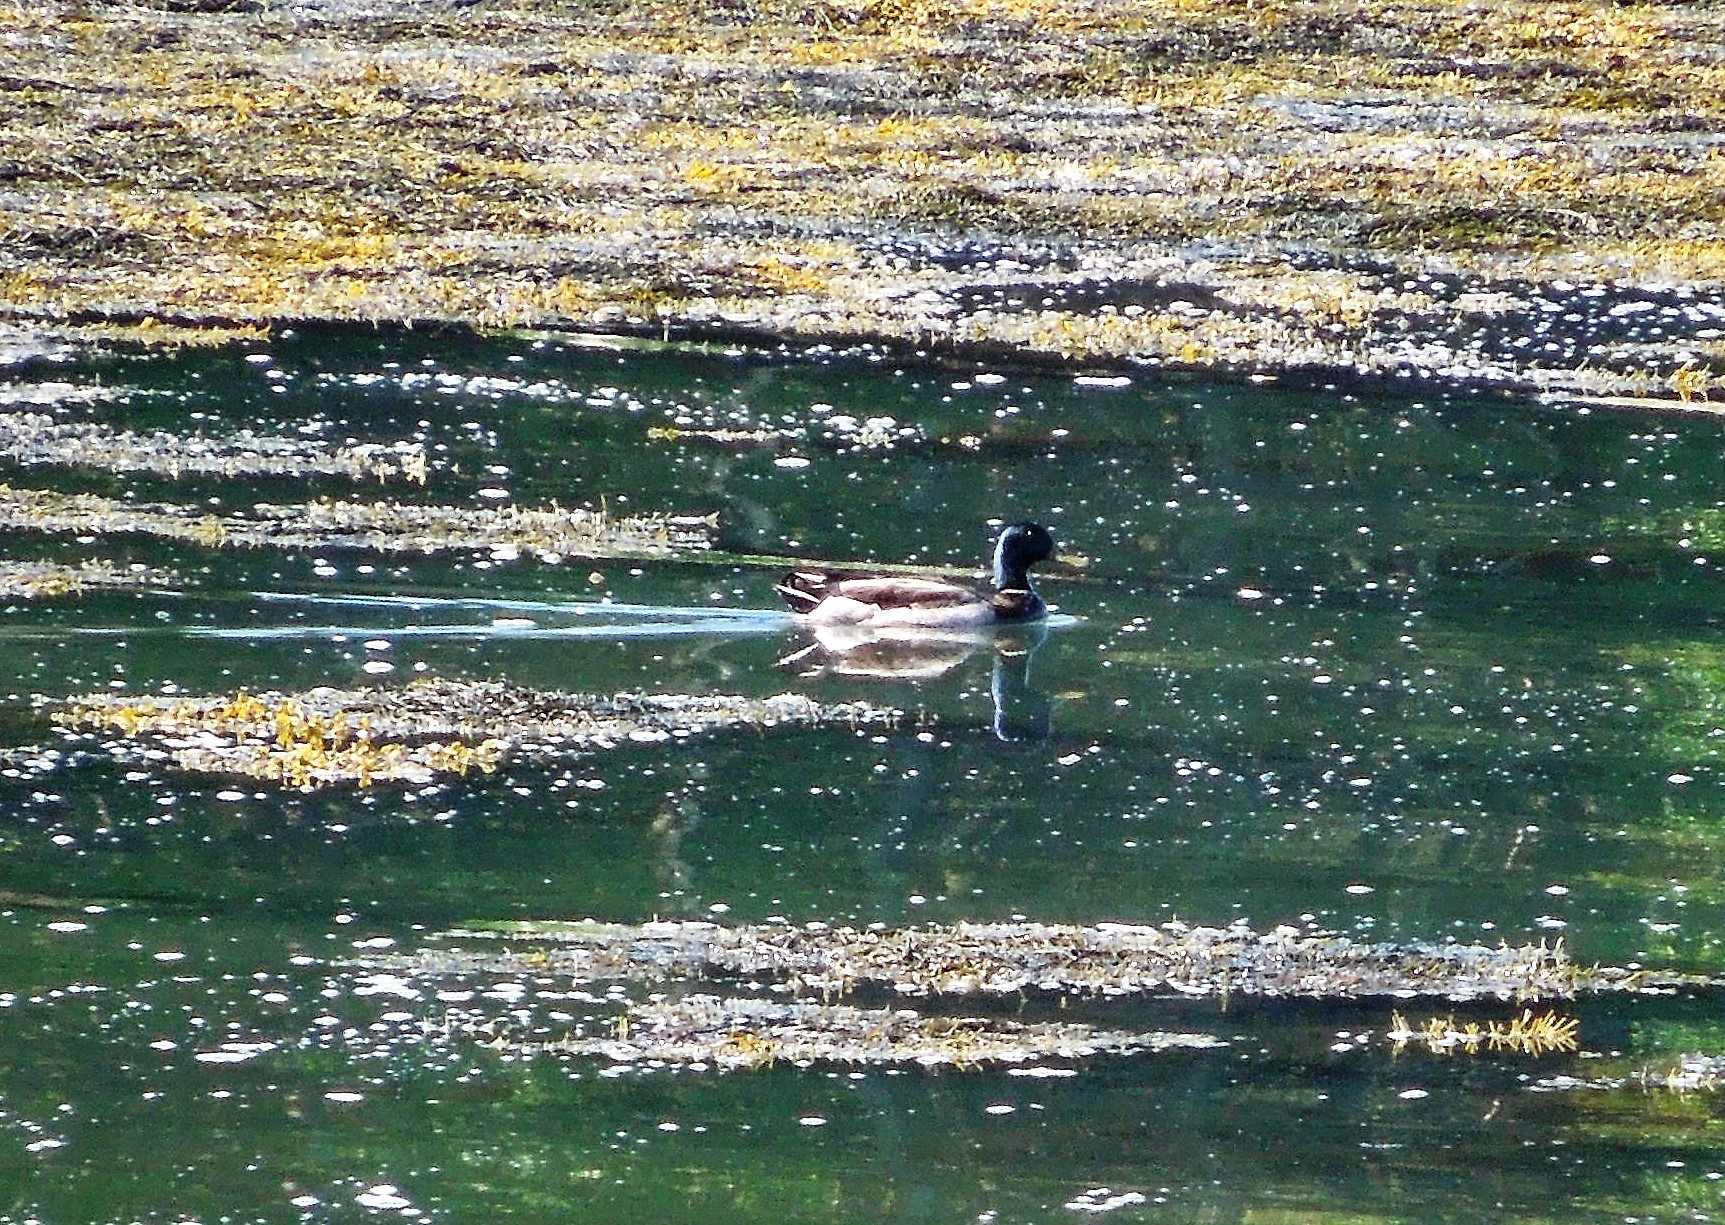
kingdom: Animalia
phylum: Chordata
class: Aves
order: Anseriformes
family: Anatidae
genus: Anas
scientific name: Anas platyrhynchos
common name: Mallard
